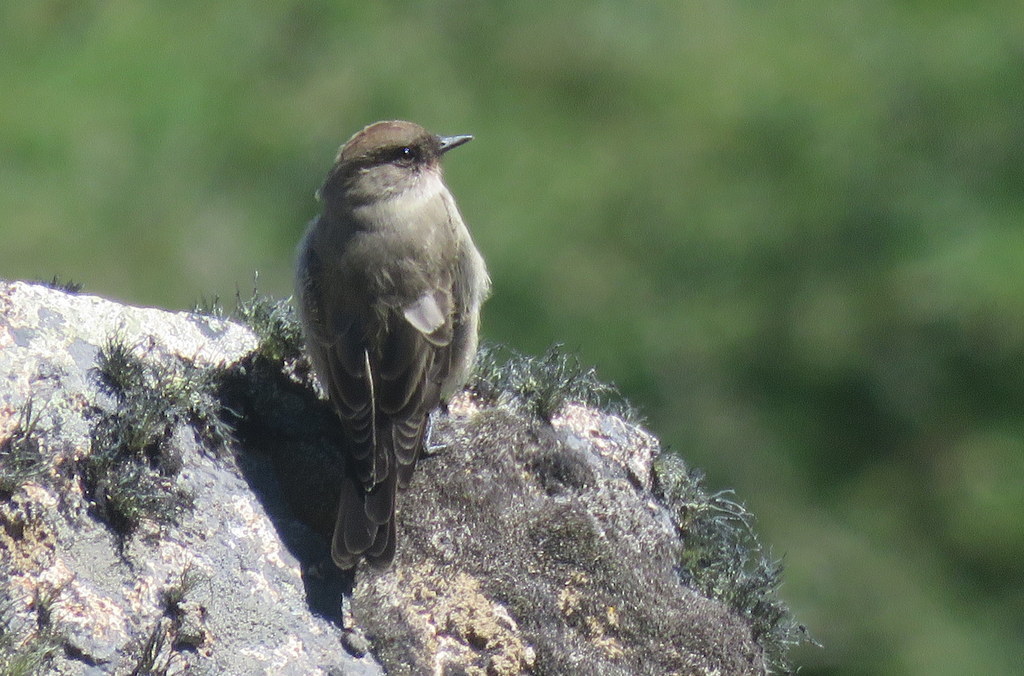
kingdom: Animalia
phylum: Chordata
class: Aves
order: Passeriformes
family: Tyrannidae
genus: Muscisaxicola
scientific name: Muscisaxicola maclovianus
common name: Dark-faced ground tyrant
